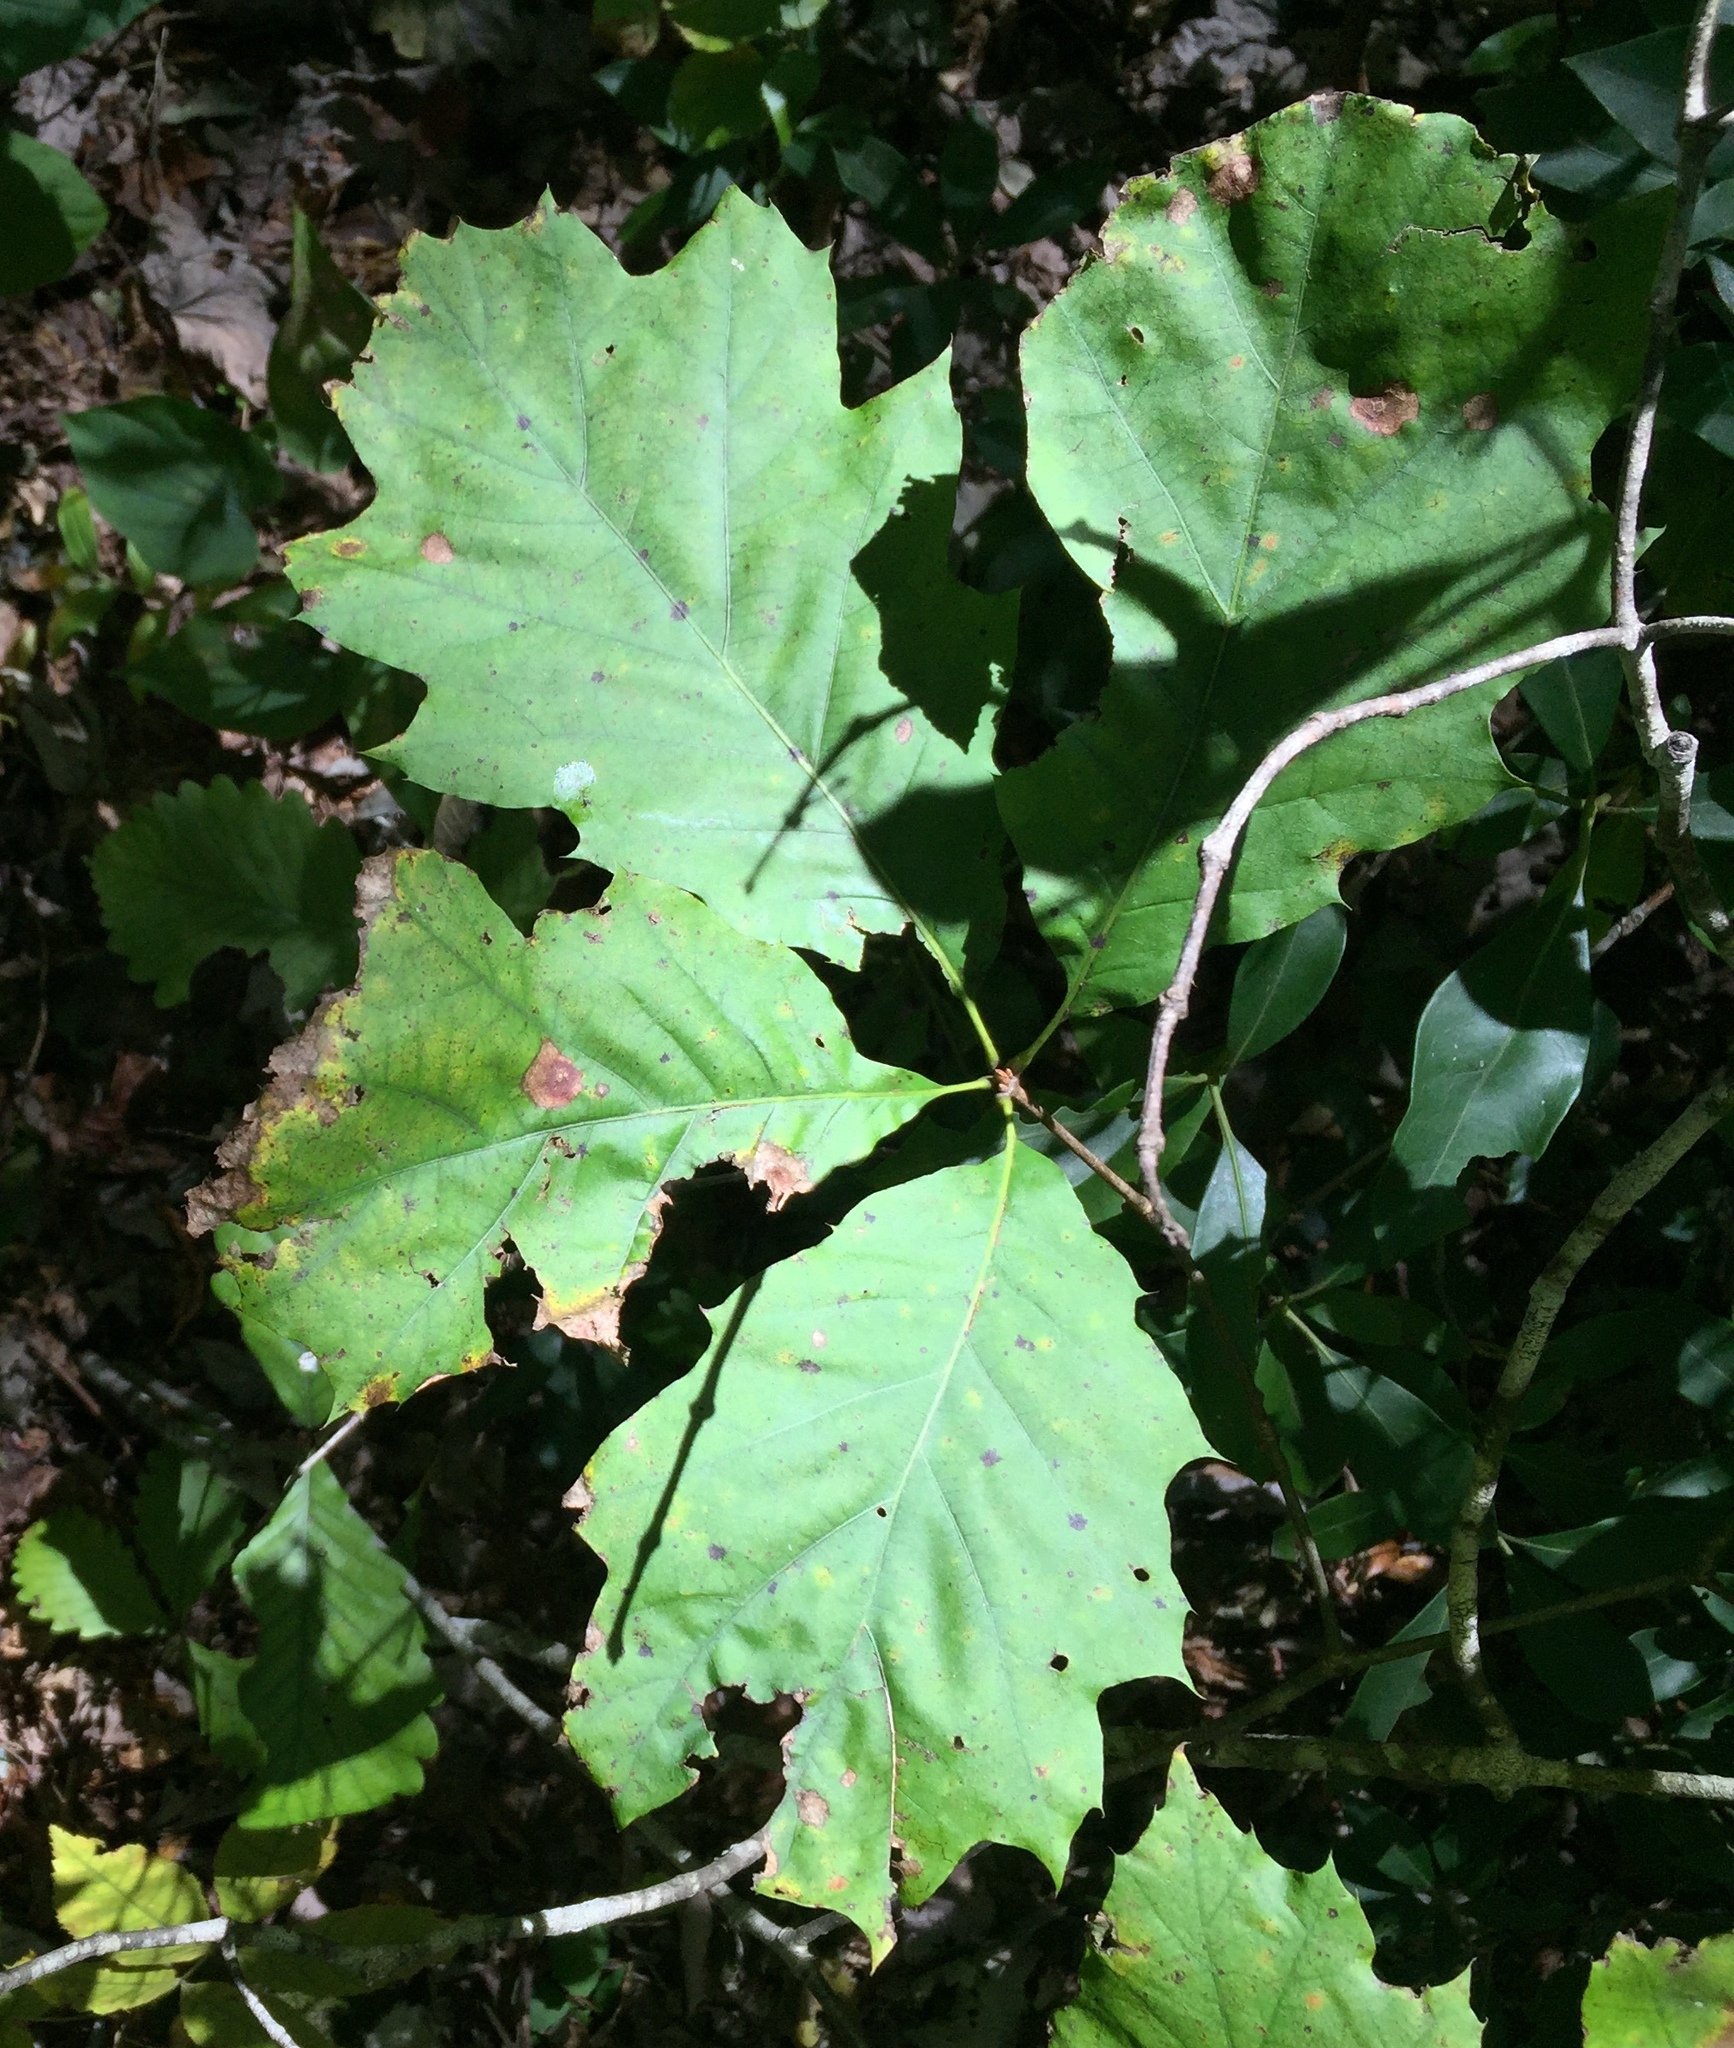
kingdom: Plantae
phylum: Tracheophyta
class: Magnoliopsida
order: Fagales
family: Fagaceae
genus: Quercus
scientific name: Quercus rubra
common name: Red oak
